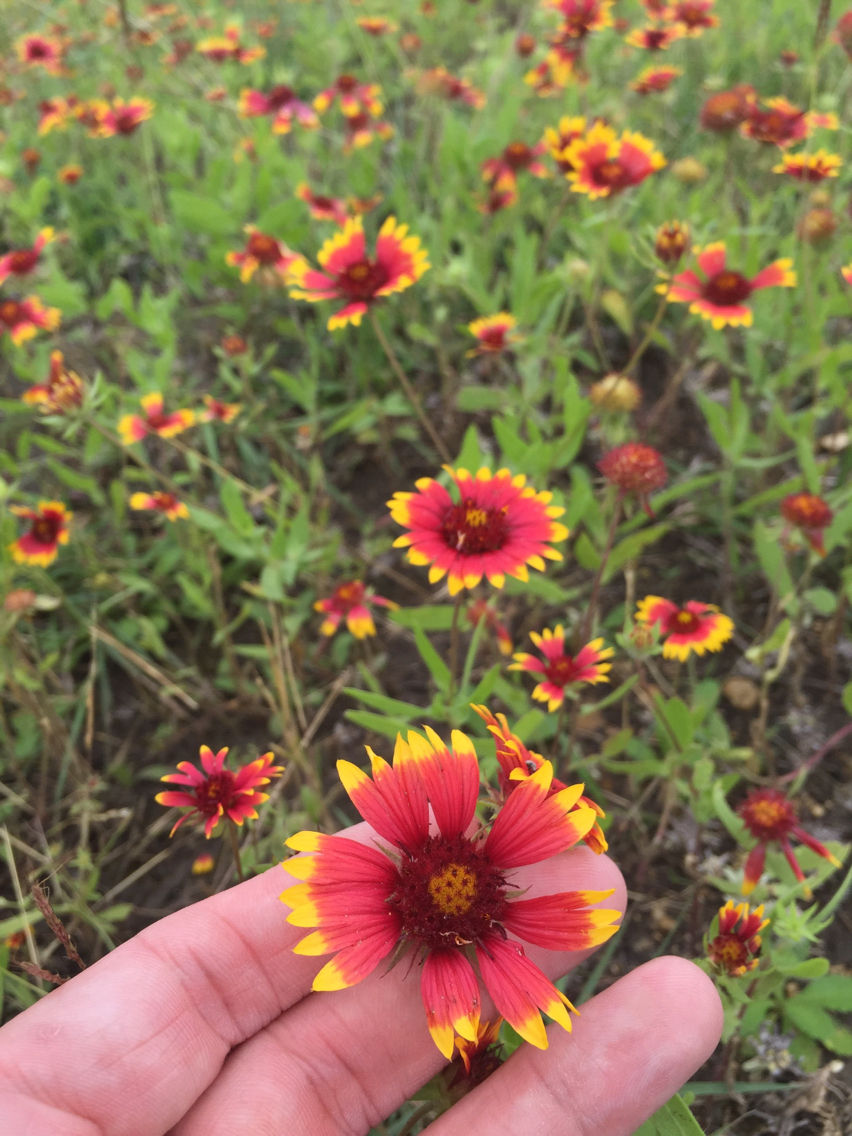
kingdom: Plantae
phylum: Tracheophyta
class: Magnoliopsida
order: Asterales
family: Asteraceae
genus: Gaillardia
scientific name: Gaillardia pulchella
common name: Firewheel
